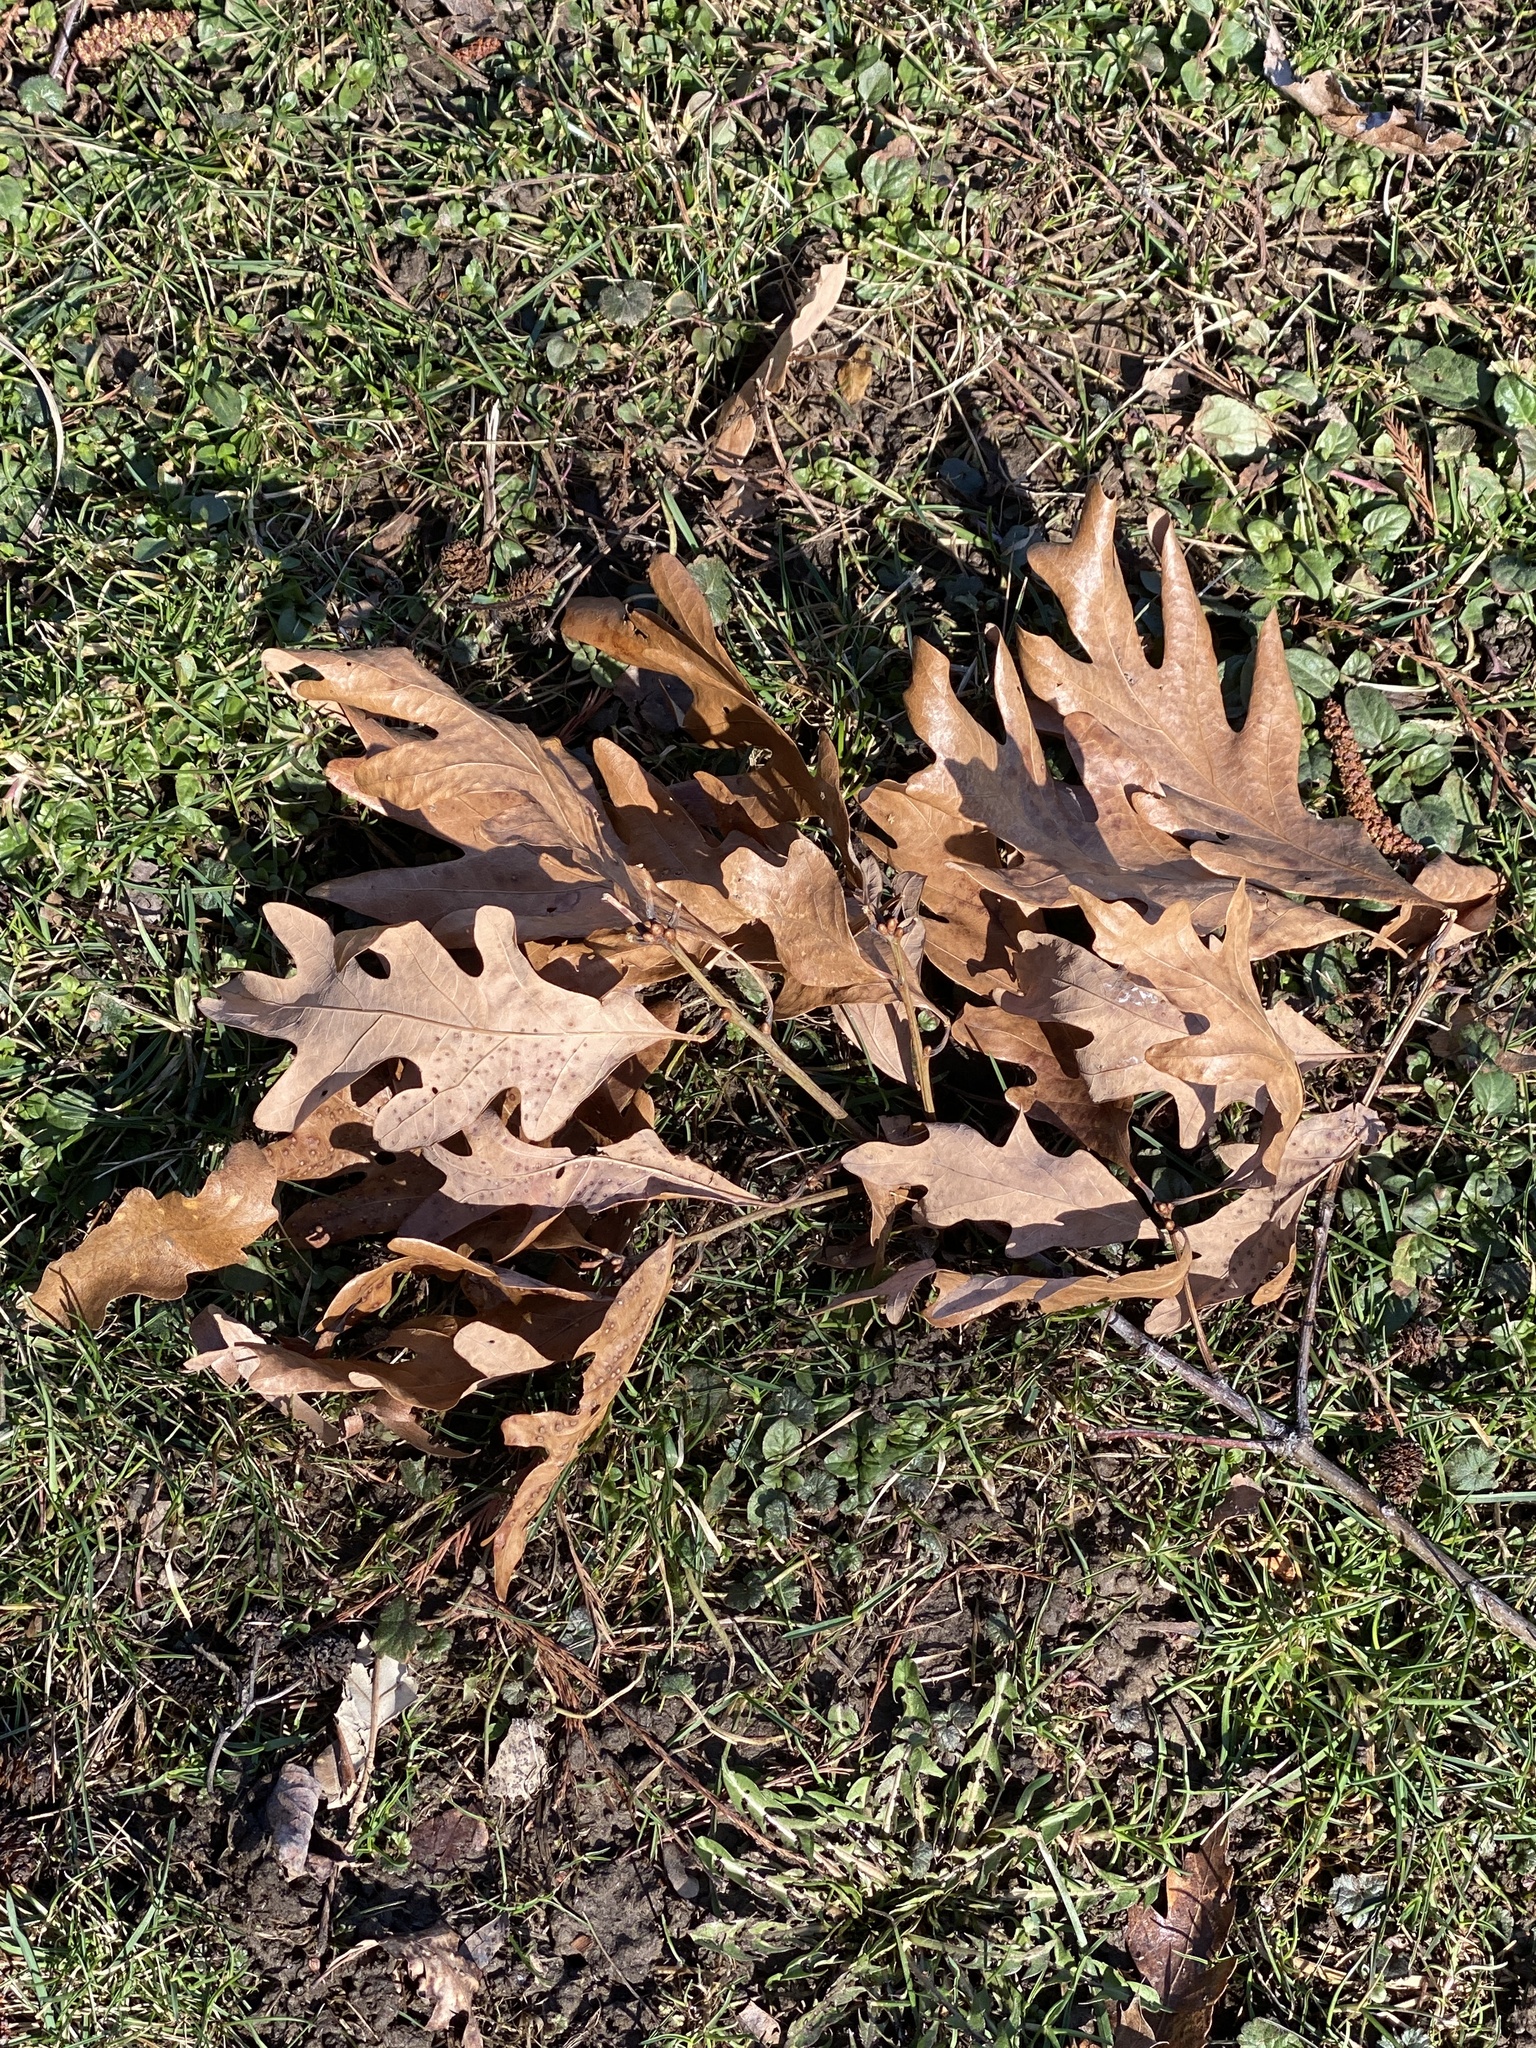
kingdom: Plantae
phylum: Tracheophyta
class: Magnoliopsida
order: Fagales
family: Fagaceae
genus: Quercus
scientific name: Quercus alba
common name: White oak
